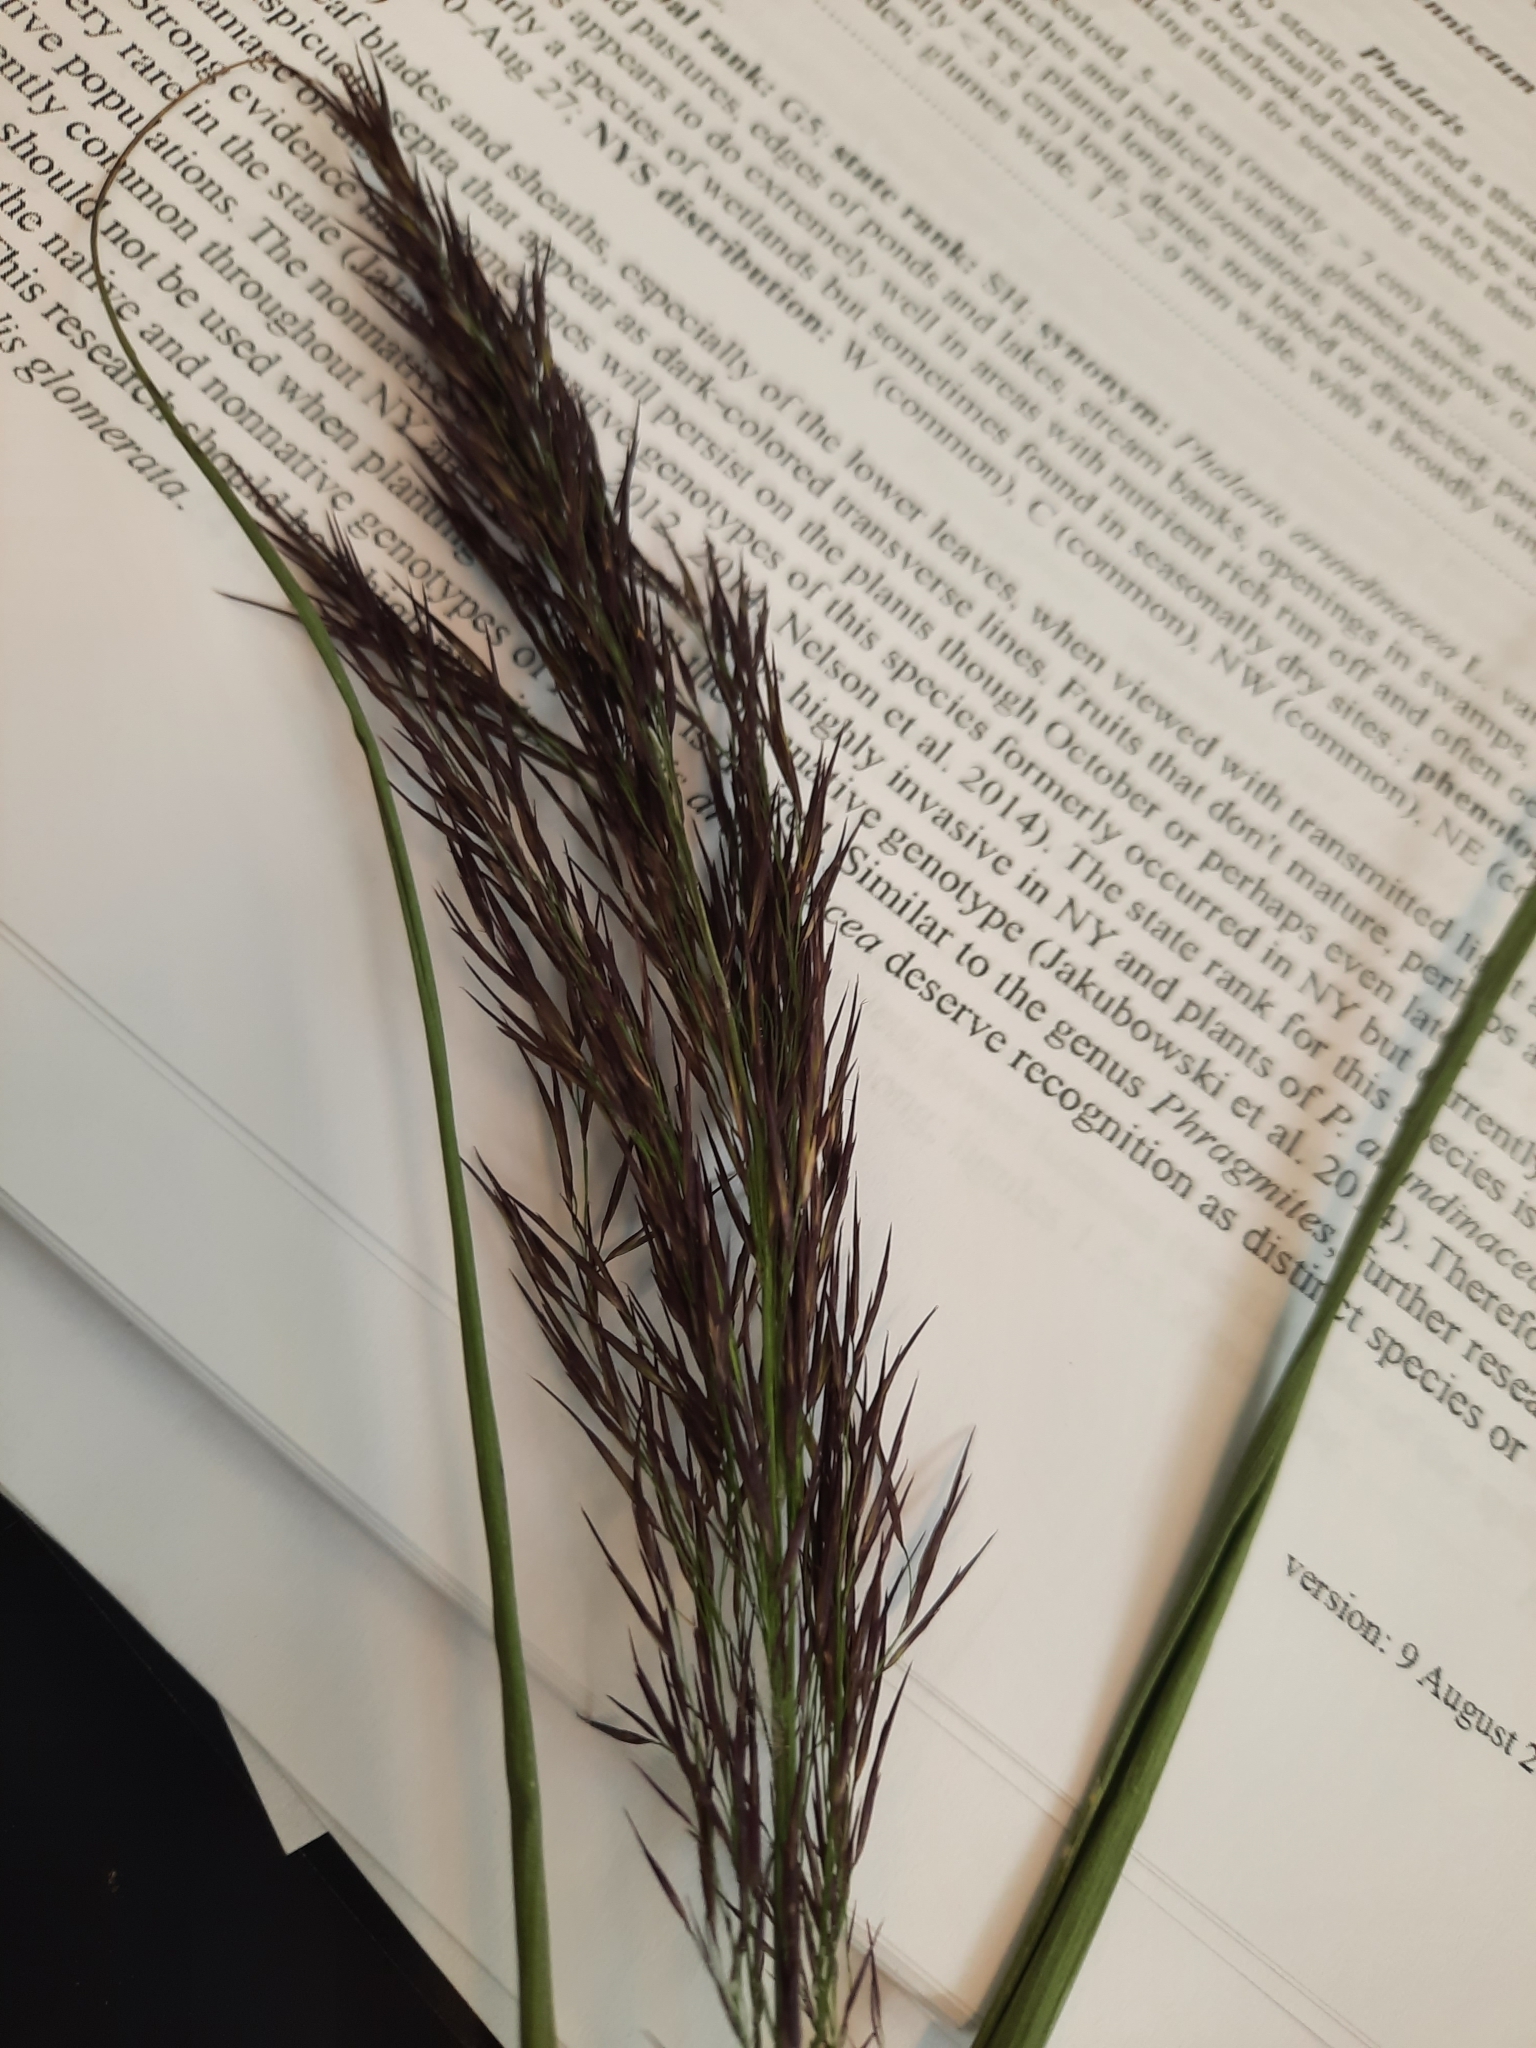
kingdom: Plantae
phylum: Tracheophyta
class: Liliopsida
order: Poales
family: Poaceae
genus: Phragmites
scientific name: Phragmites australis
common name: Common reed
